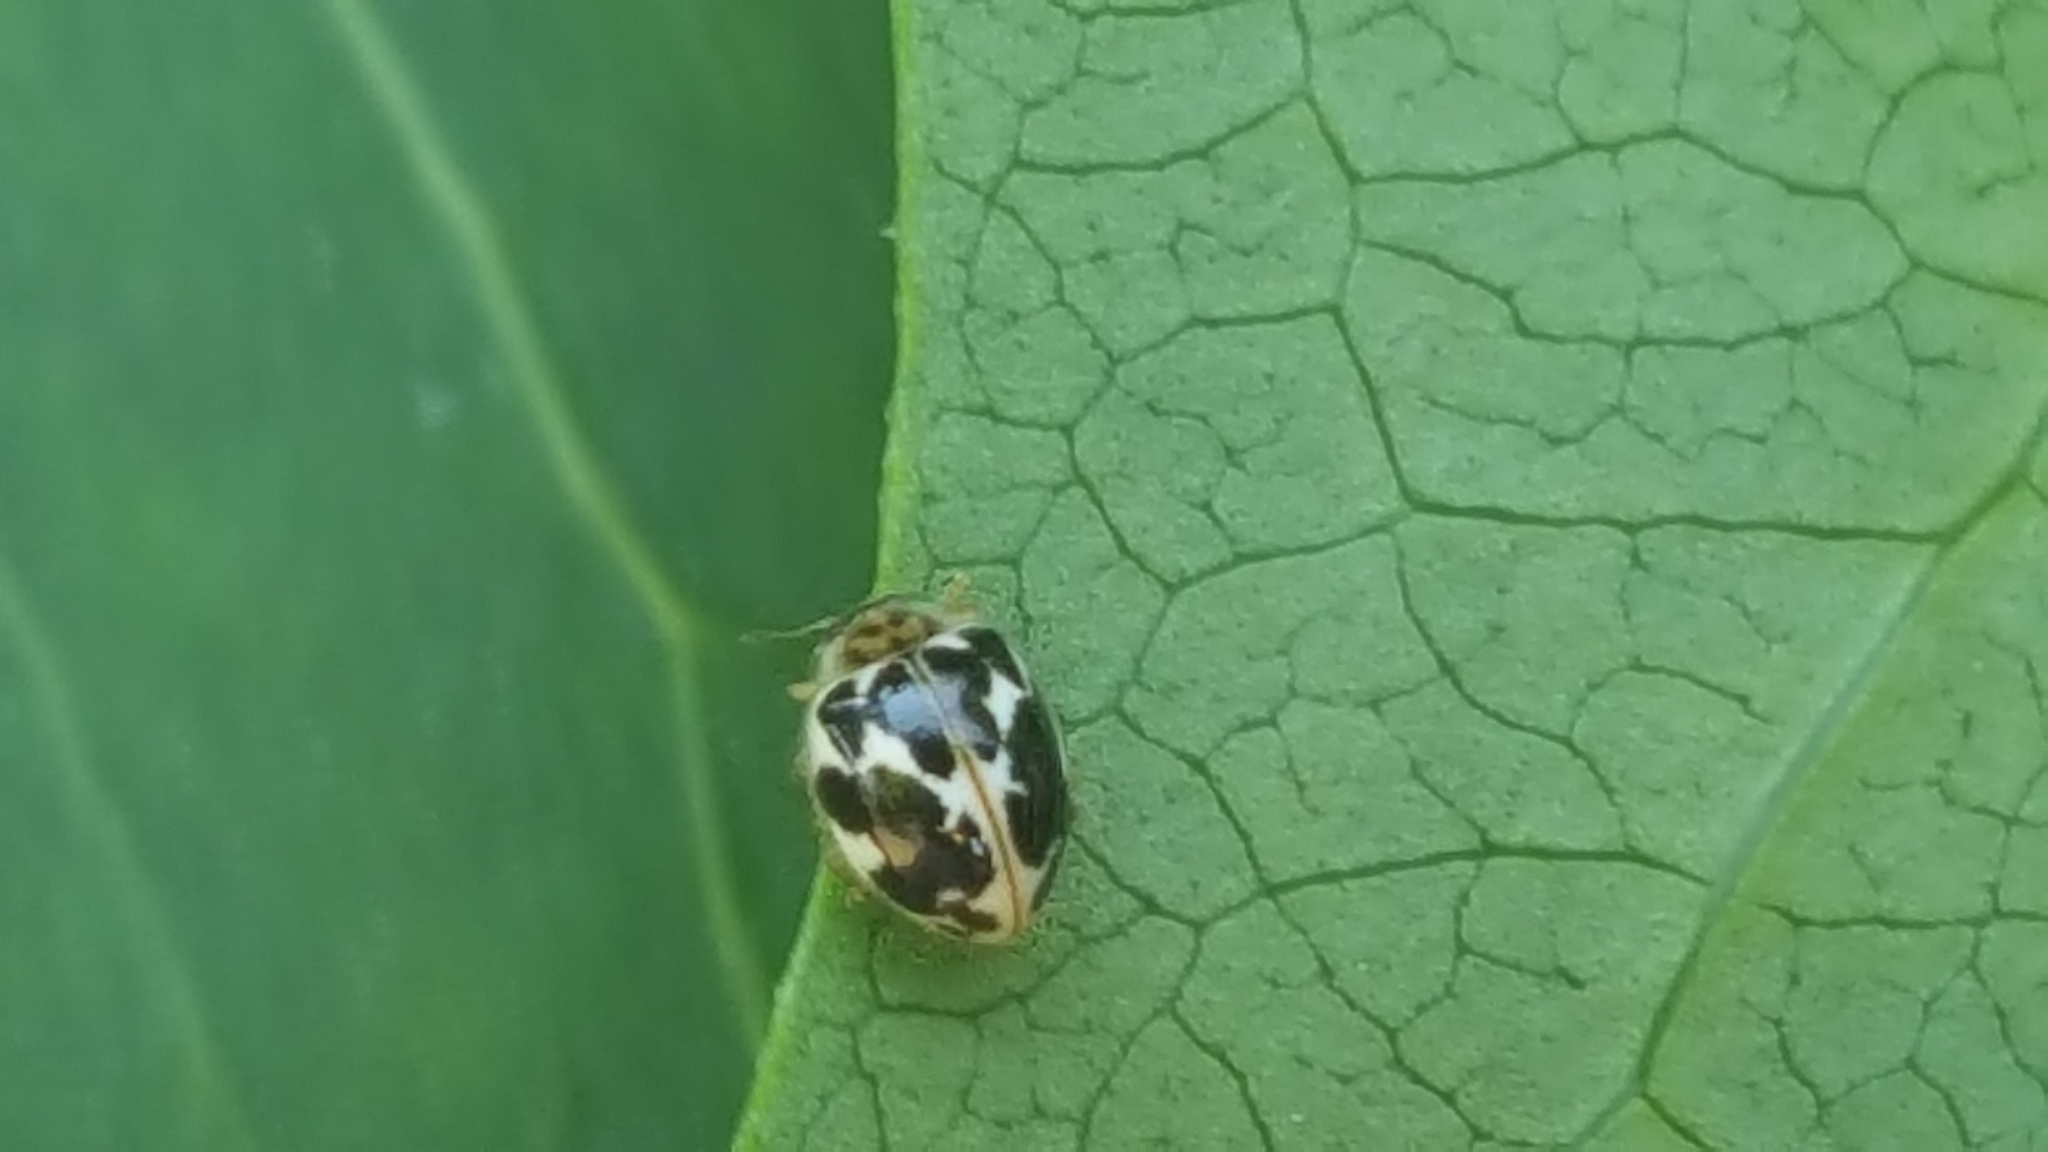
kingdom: Animalia
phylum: Arthropoda
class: Insecta
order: Coleoptera
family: Coccinellidae
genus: Psyllobora
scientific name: Psyllobora vigintimaculata
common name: Ladybird beetle
